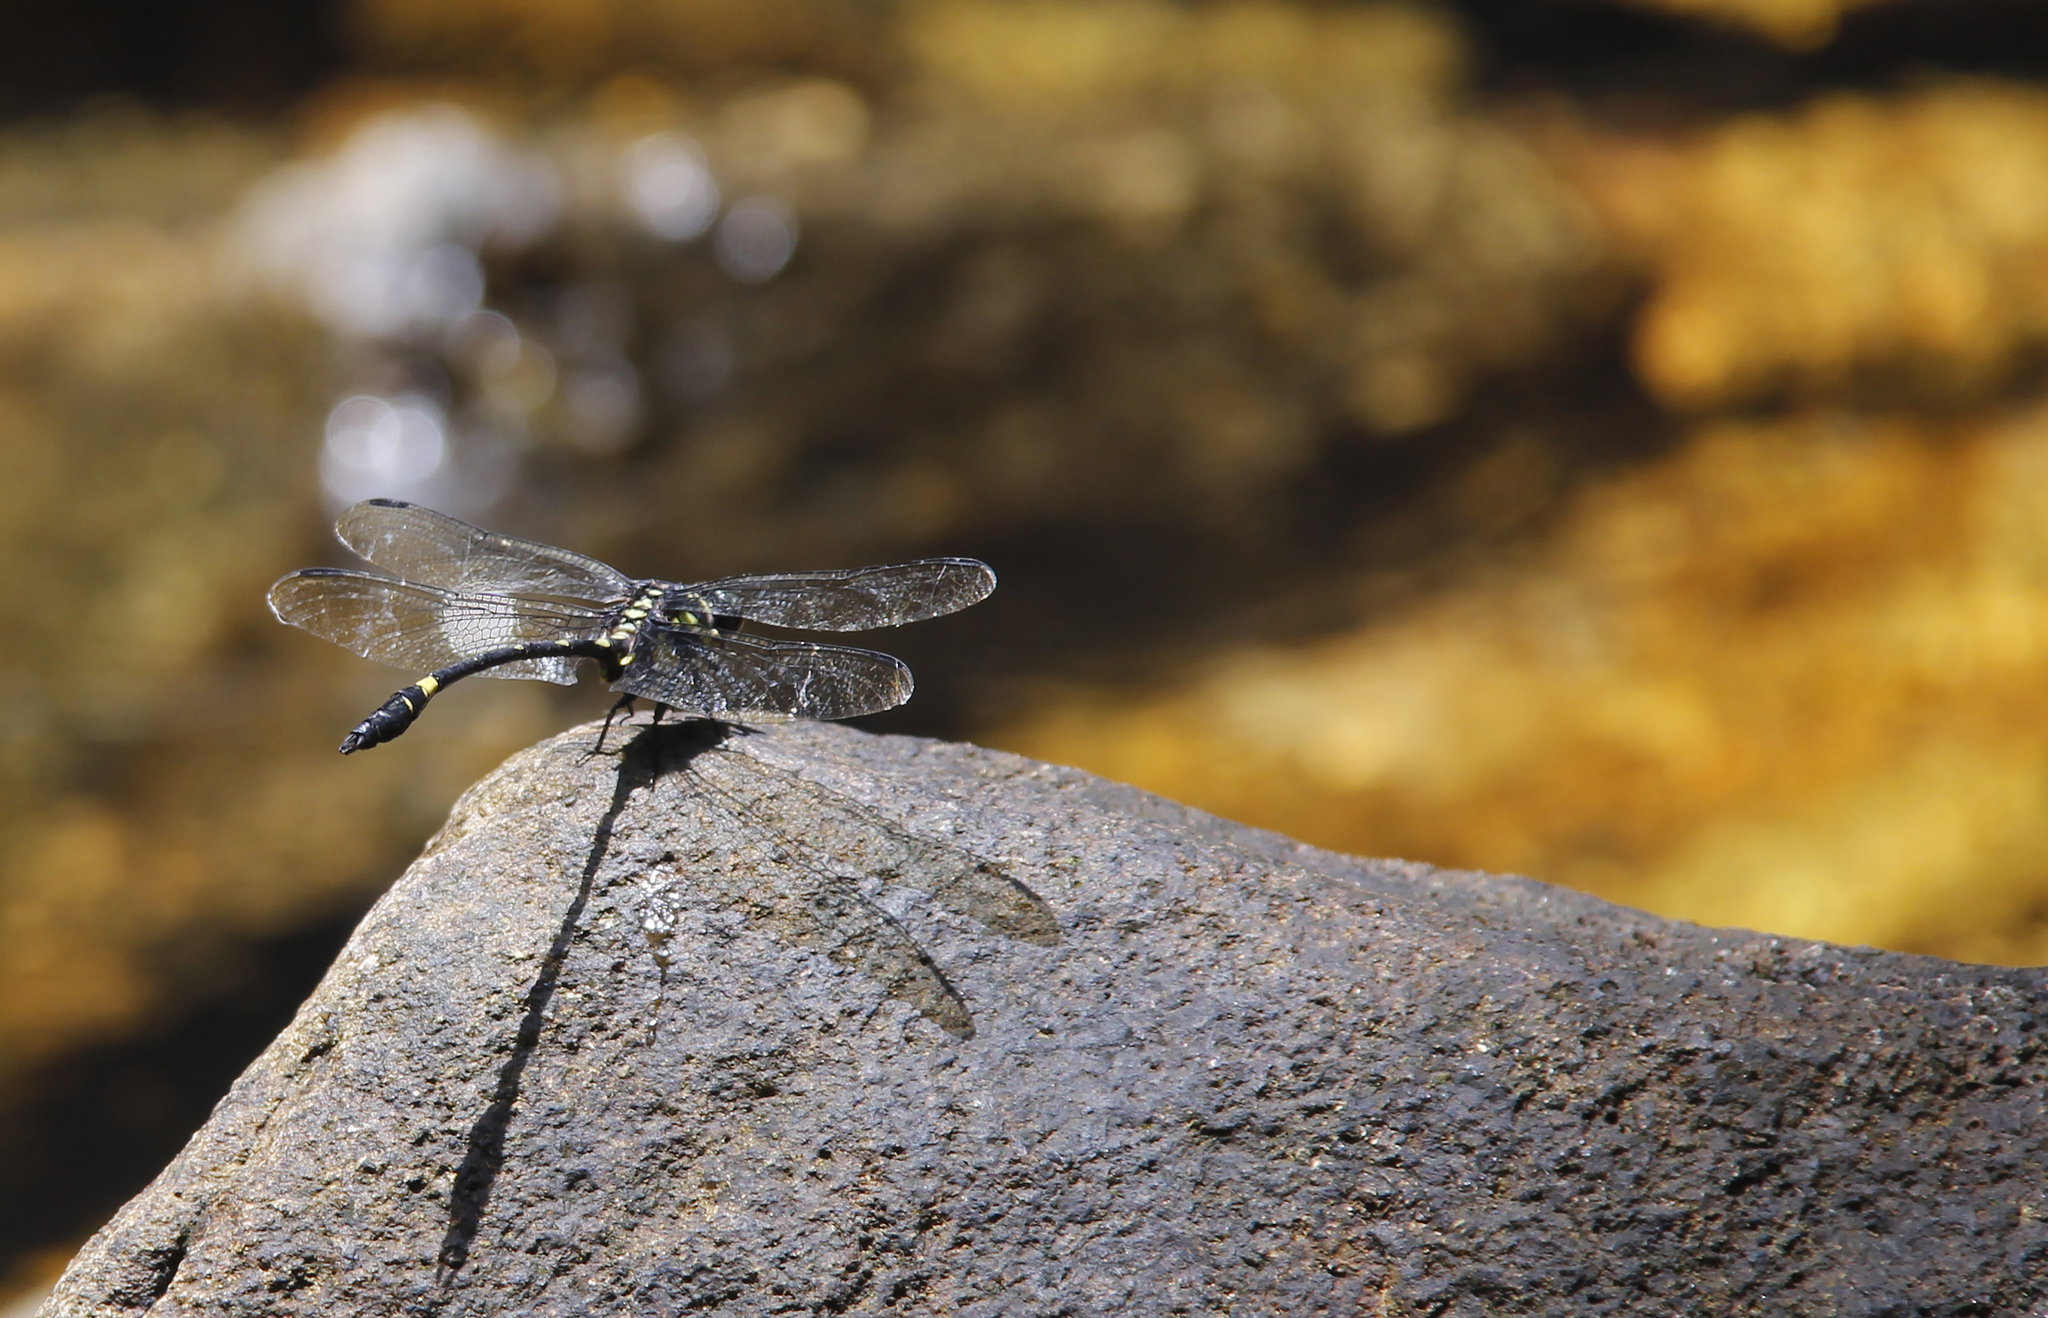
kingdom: Animalia
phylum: Arthropoda
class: Insecta
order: Odonata
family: Gomphidae
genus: Gomphidia
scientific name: Gomphidia pearsoni
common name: Rivulet tiger
